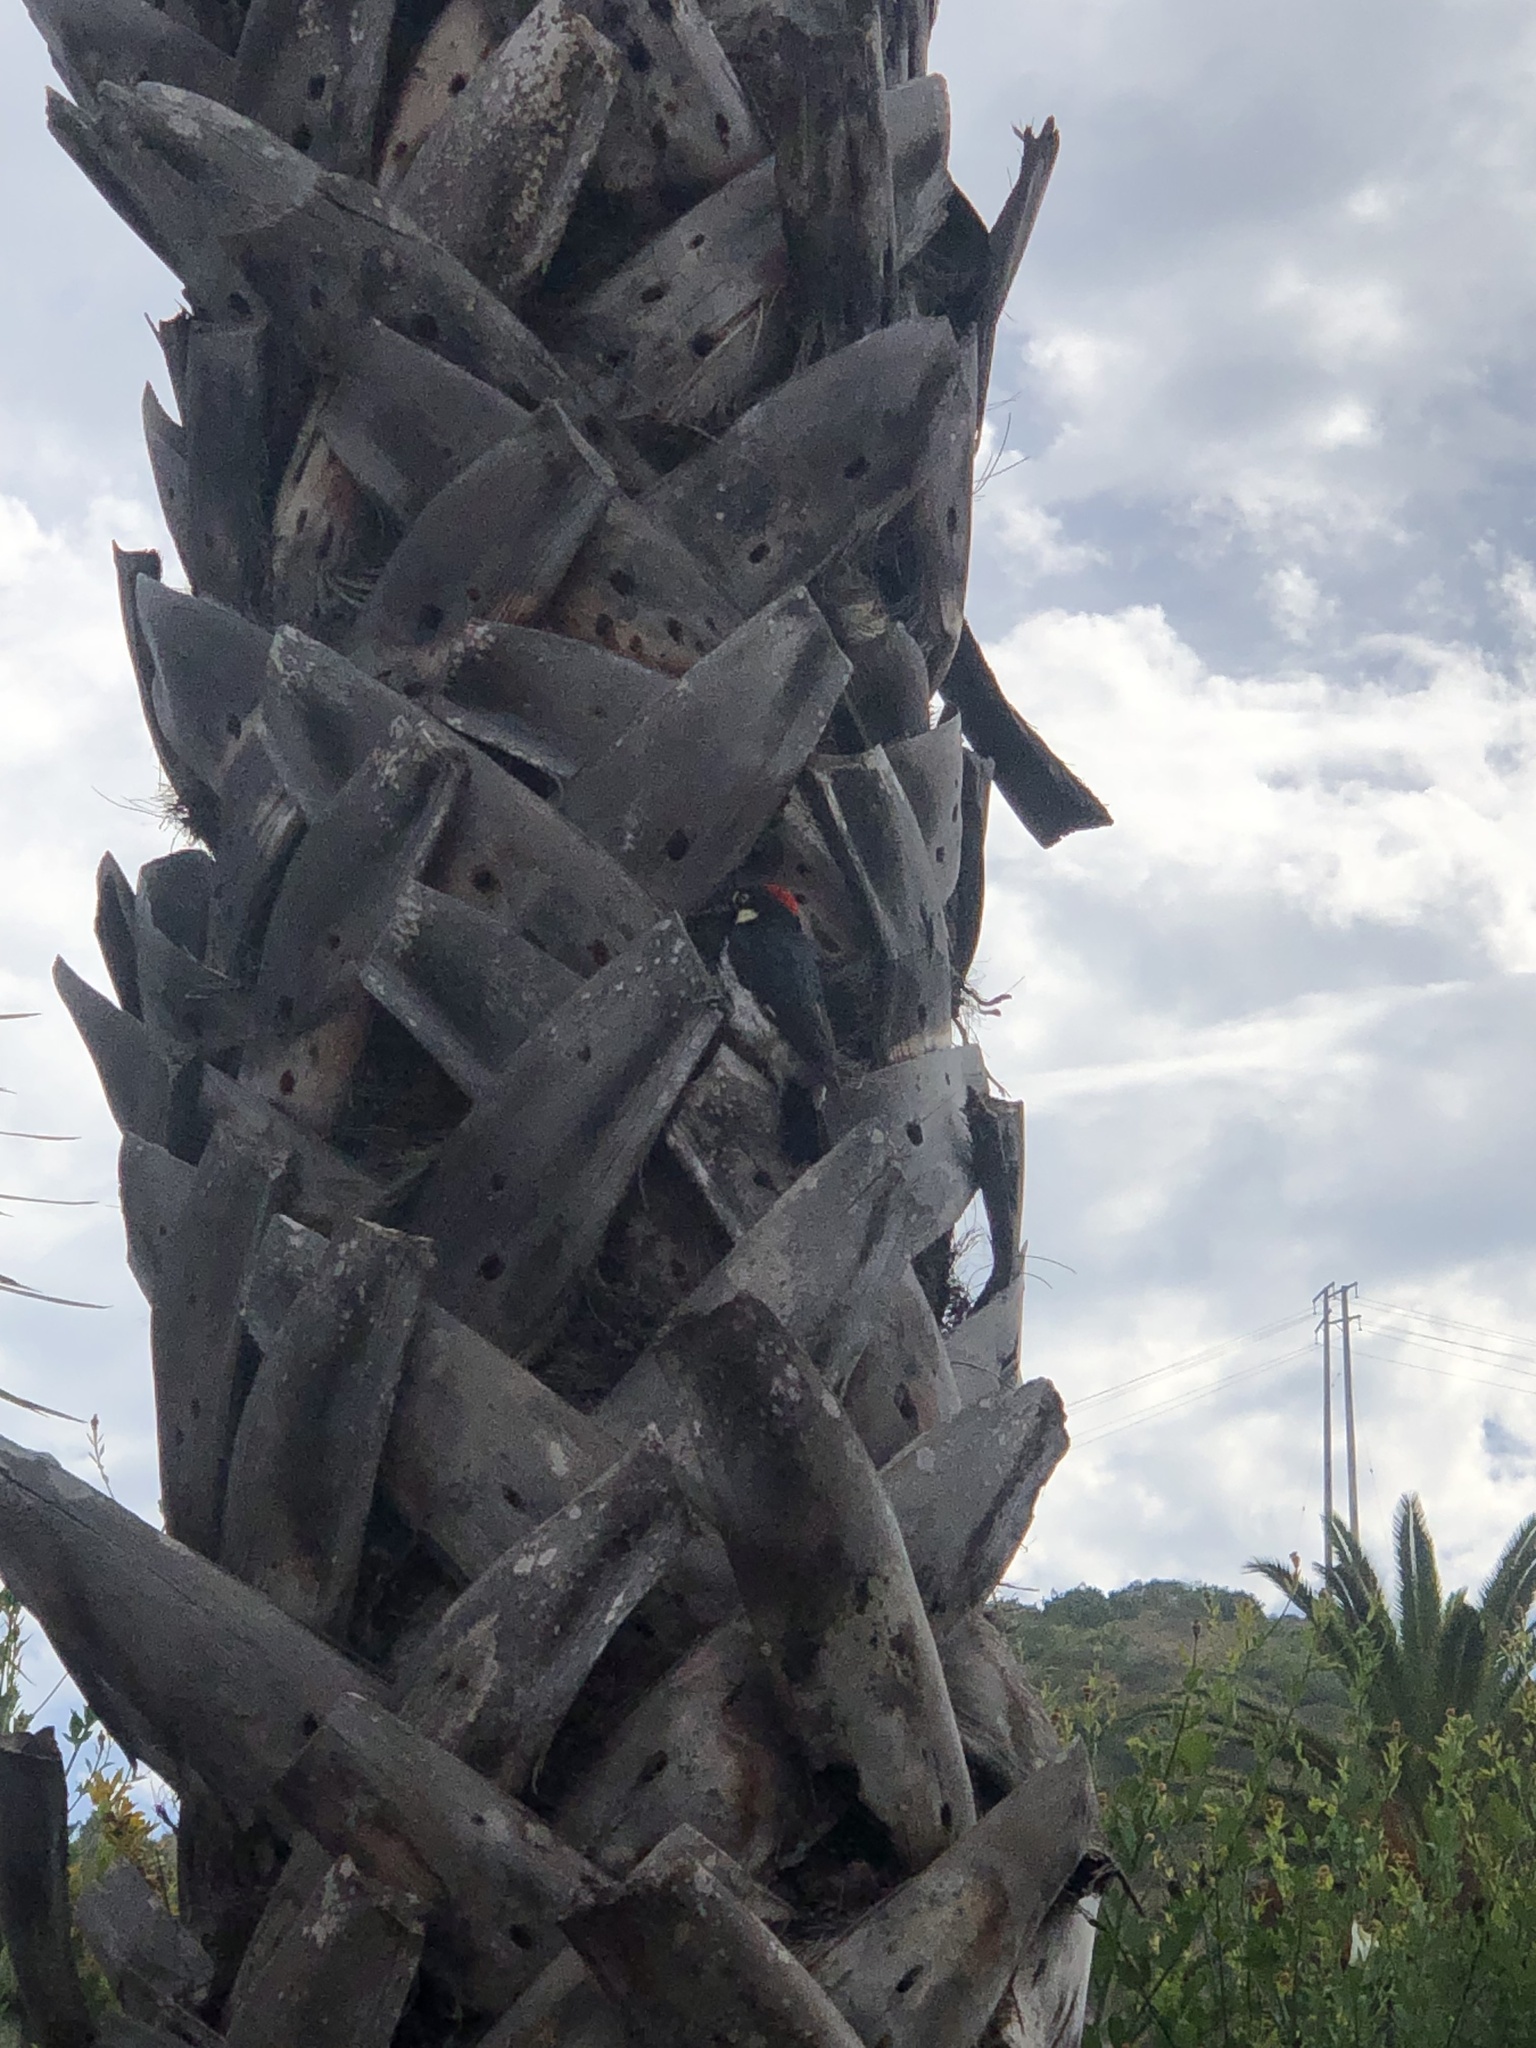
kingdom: Animalia
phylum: Chordata
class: Aves
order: Piciformes
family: Picidae
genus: Melanerpes
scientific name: Melanerpes formicivorus
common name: Acorn woodpecker
